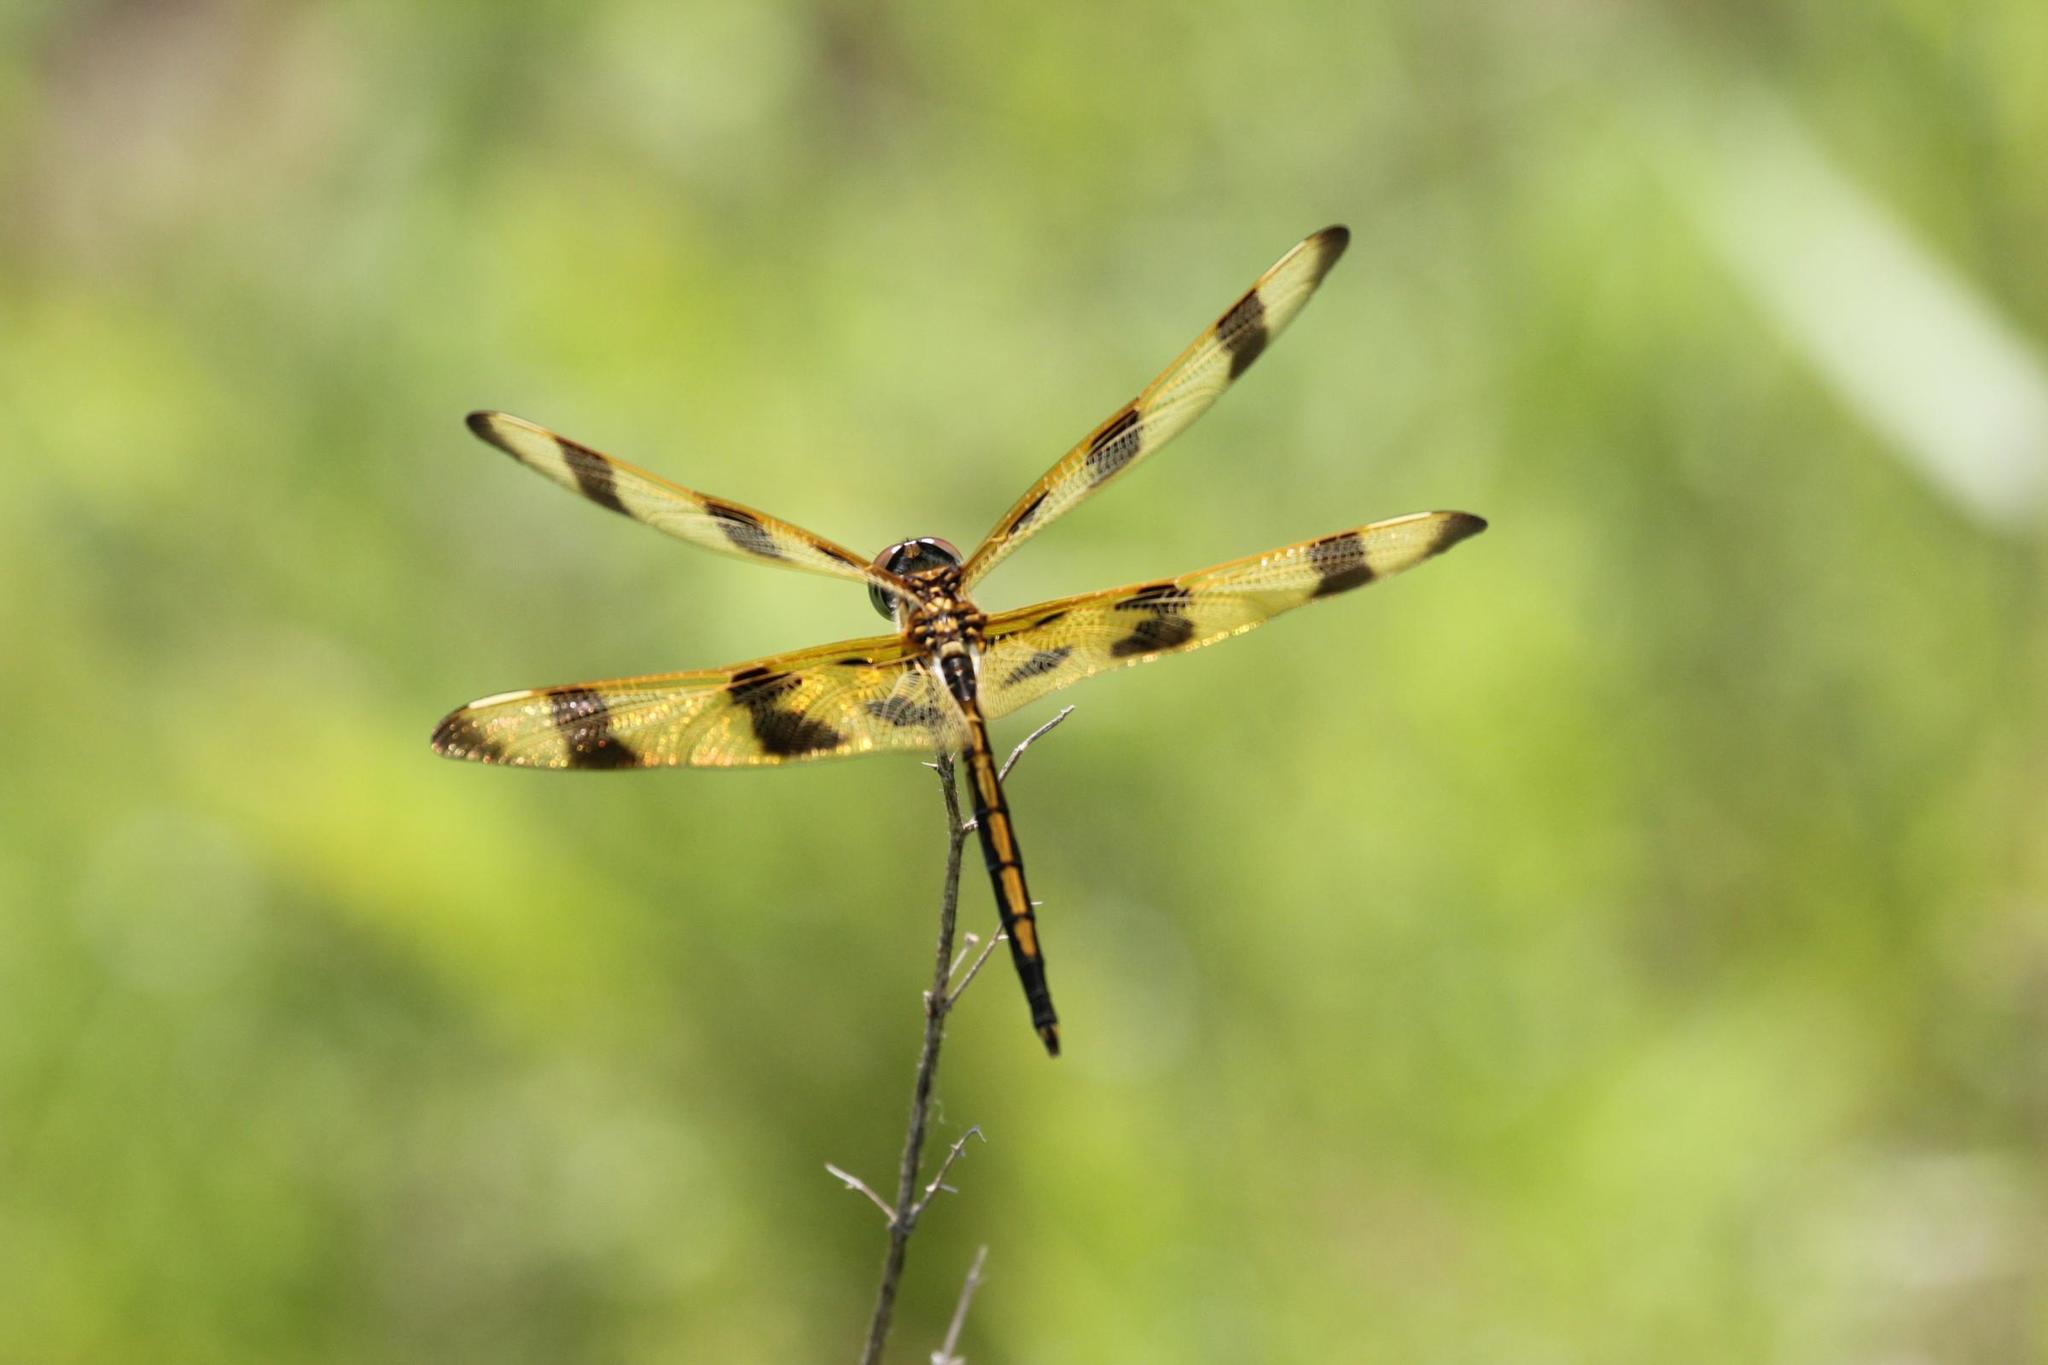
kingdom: Animalia
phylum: Arthropoda
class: Insecta
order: Odonata
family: Libellulidae
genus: Celithemis
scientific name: Celithemis eponina
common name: Halloween pennant
